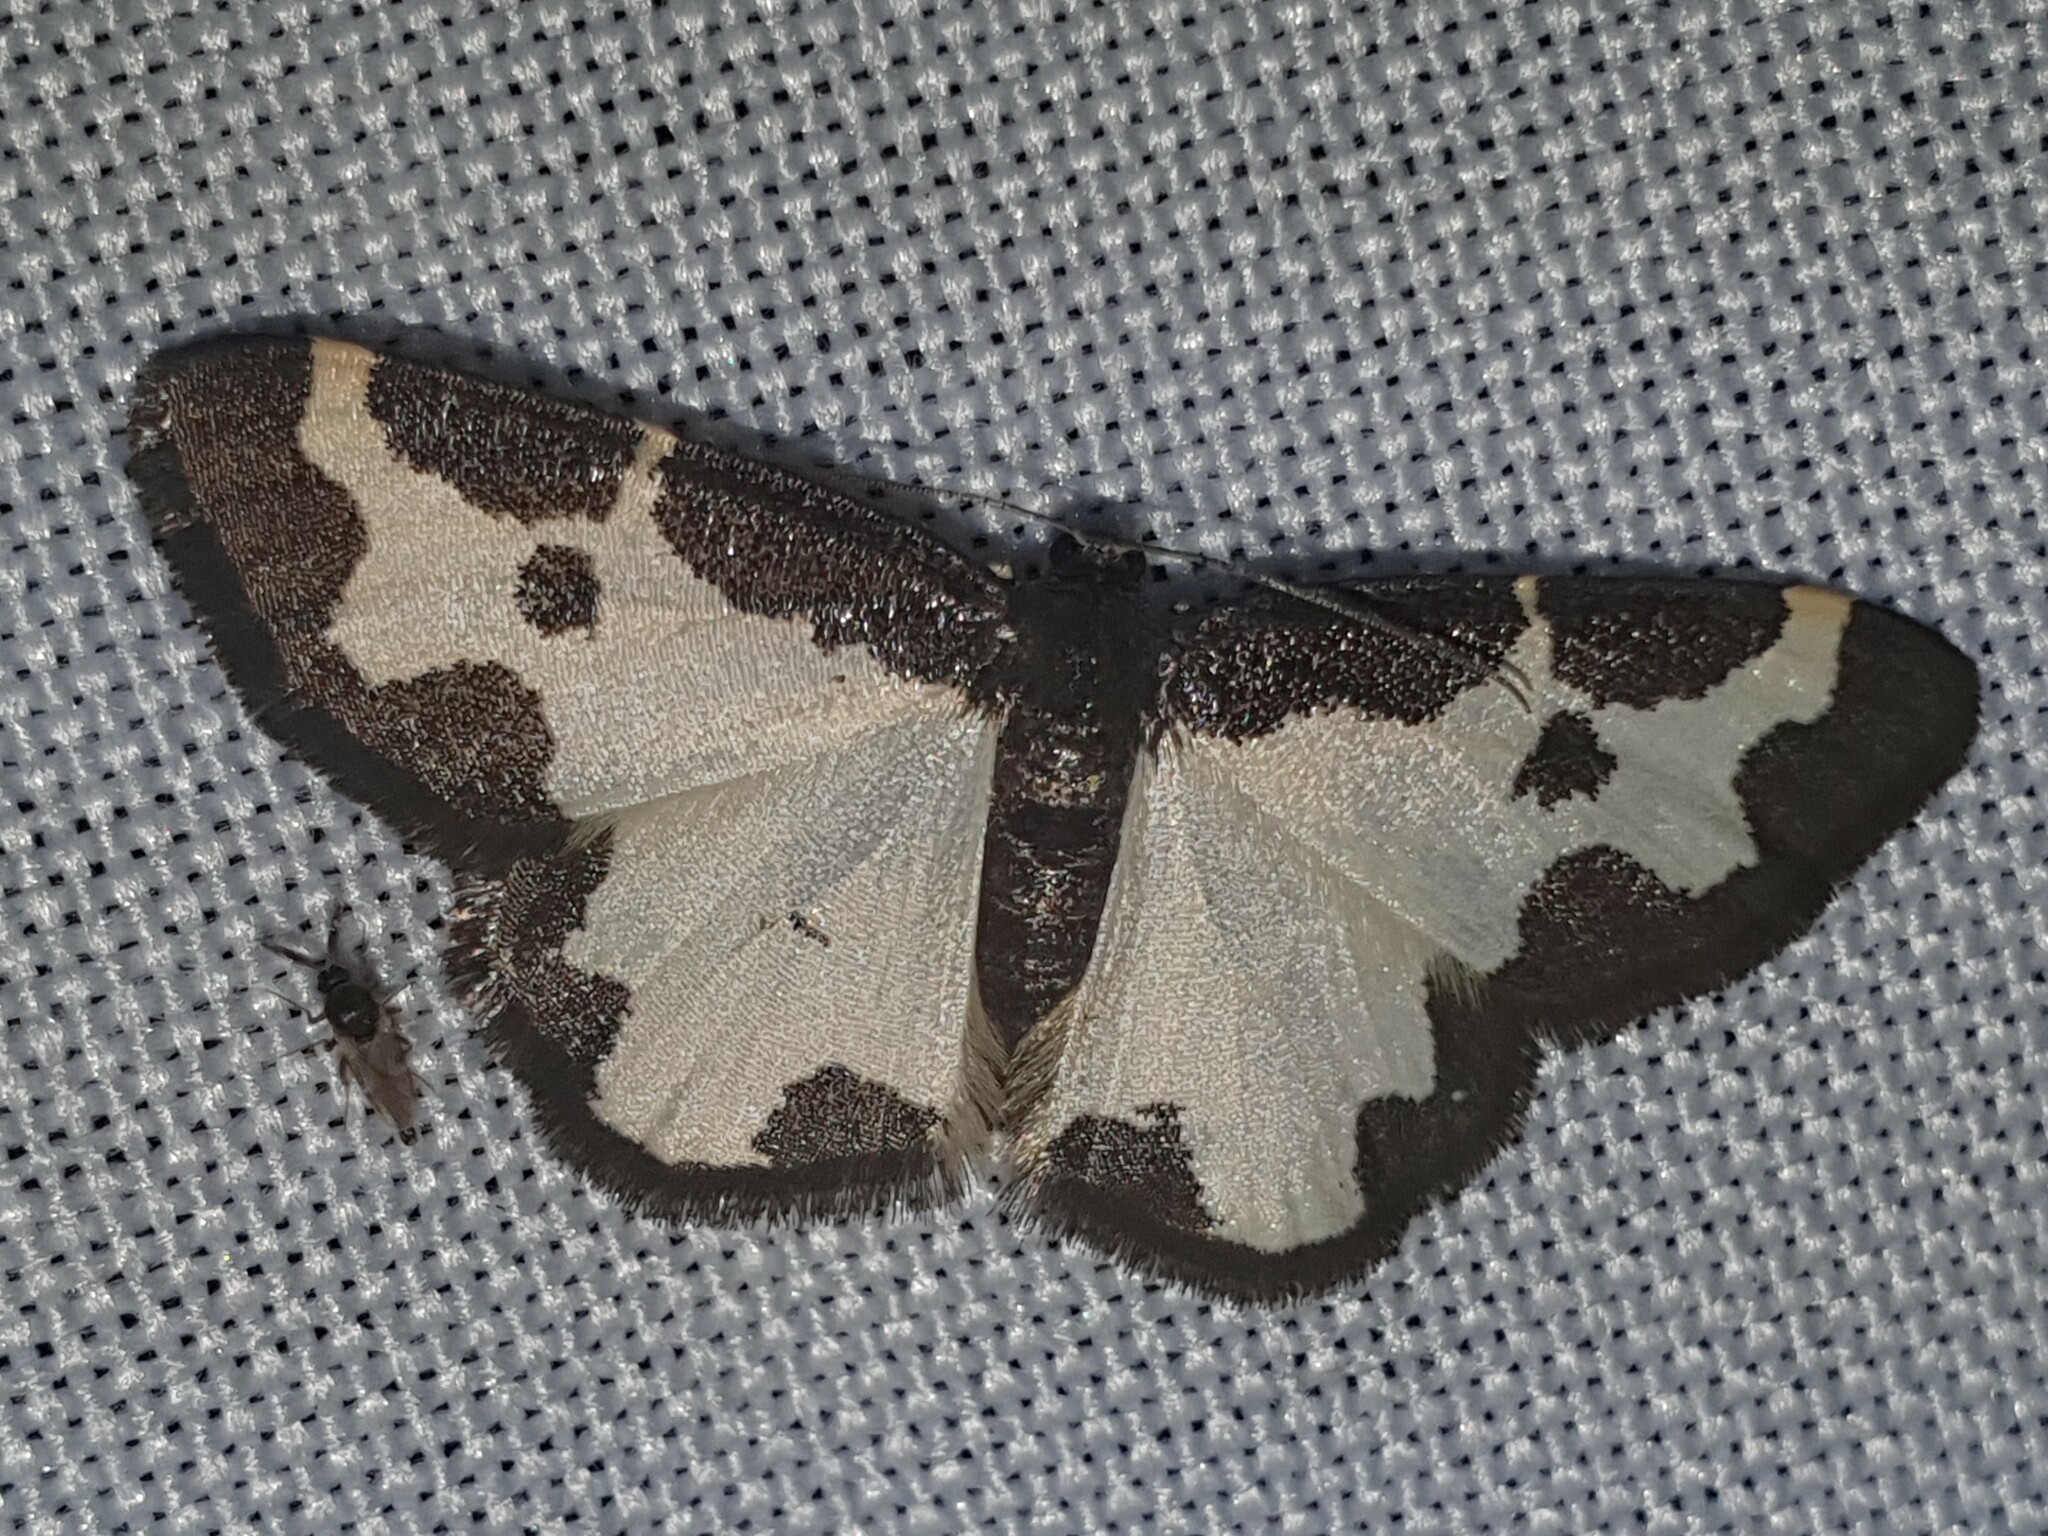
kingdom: Animalia
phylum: Arthropoda
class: Insecta
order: Lepidoptera
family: Geometridae
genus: Lomaspilis
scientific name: Lomaspilis marginata
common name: Clouded border
